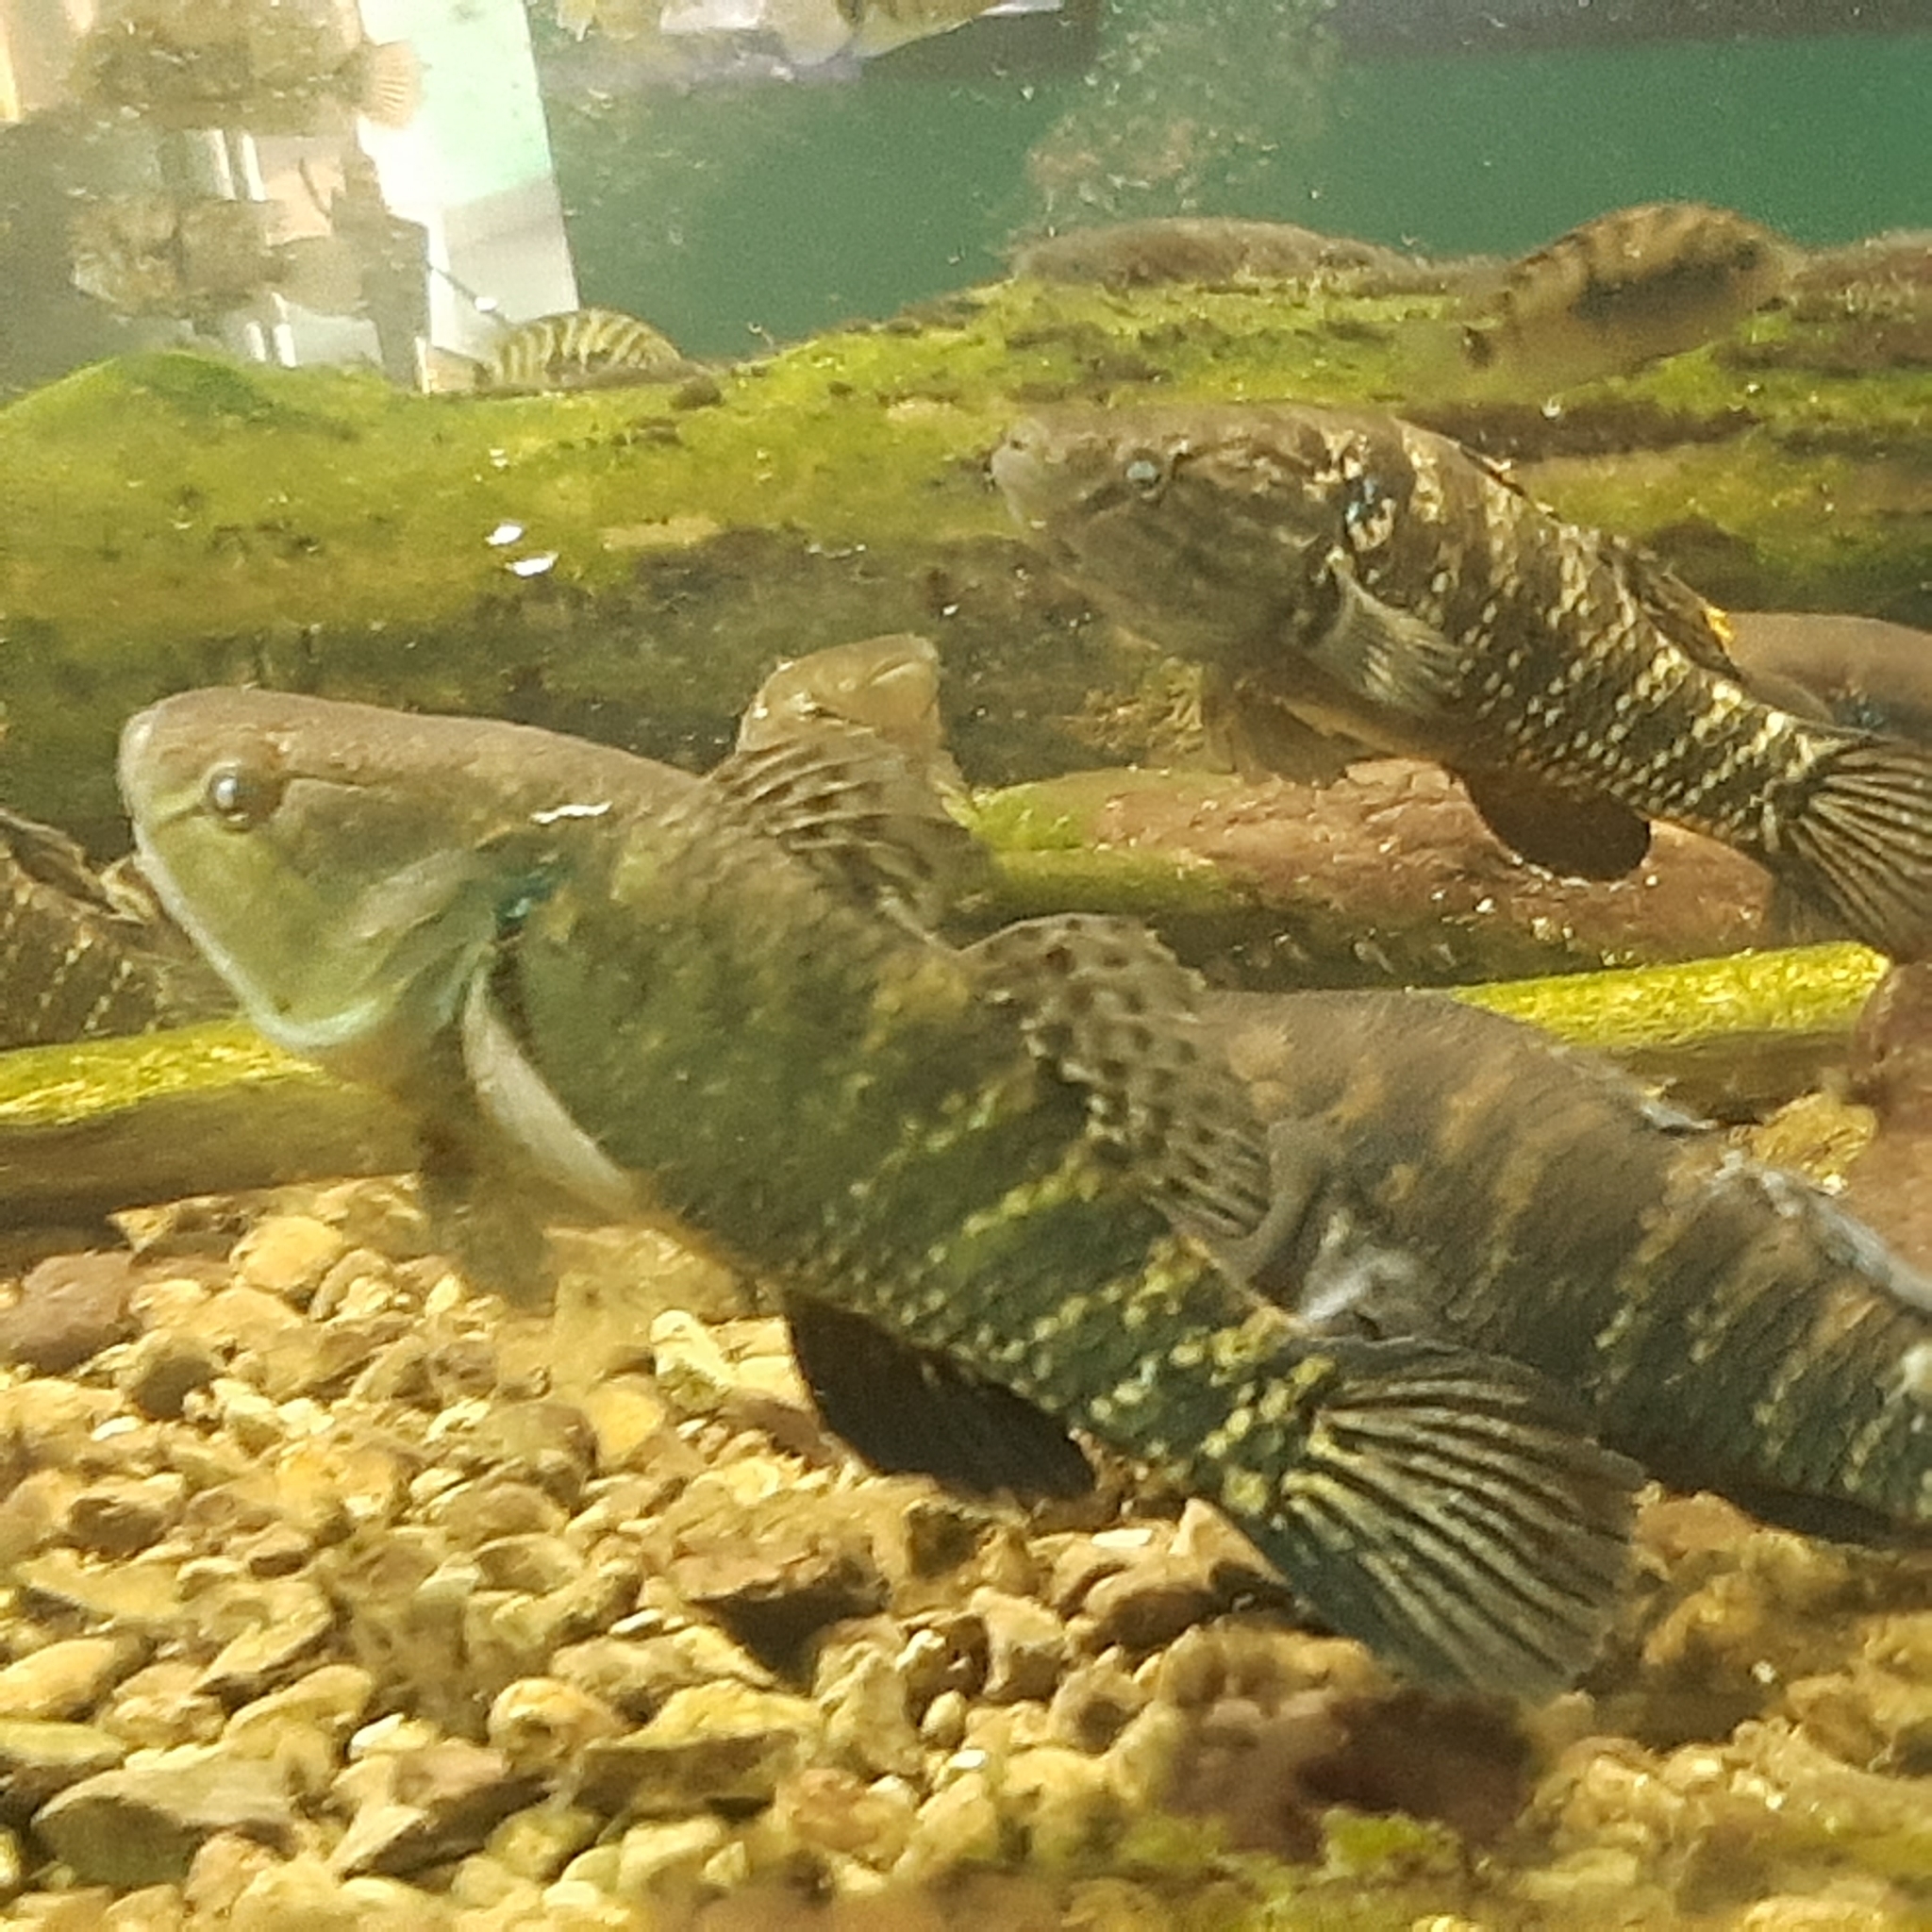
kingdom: Animalia
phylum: Chordata
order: Perciformes
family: Eleotridae
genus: Dormitator
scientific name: Dormitator latifrons
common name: Pacific fat sleeper
